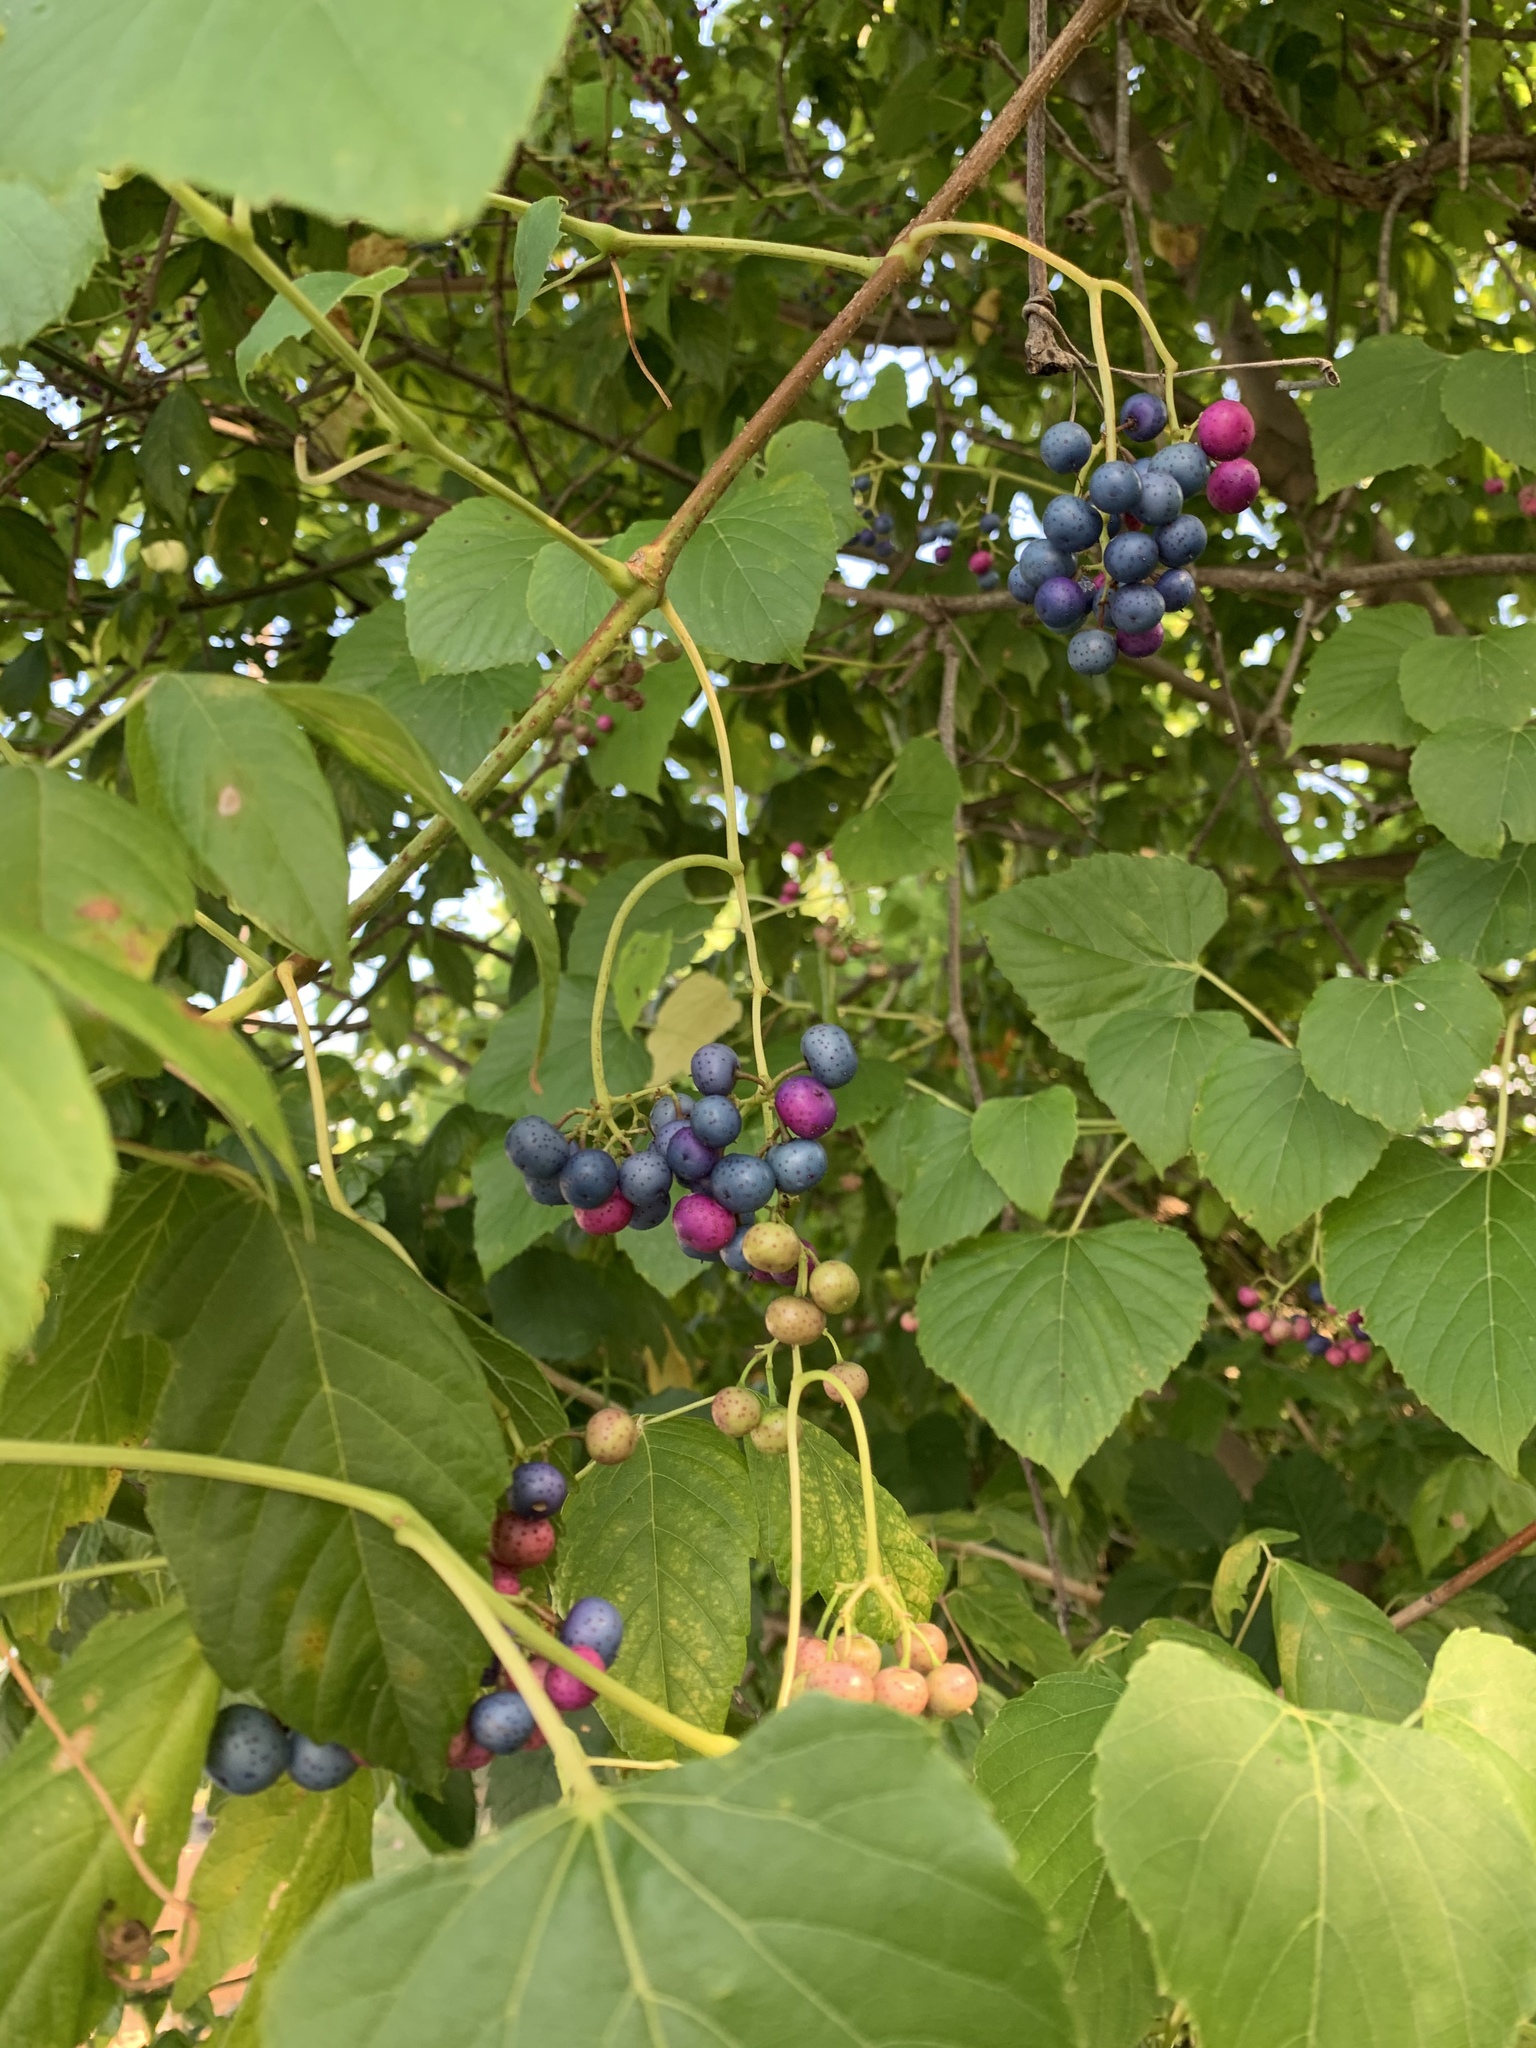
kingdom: Plantae
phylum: Tracheophyta
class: Magnoliopsida
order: Vitales
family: Vitaceae
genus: Ampelopsis
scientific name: Ampelopsis cordata
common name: Heart-leaf ampelopsis
